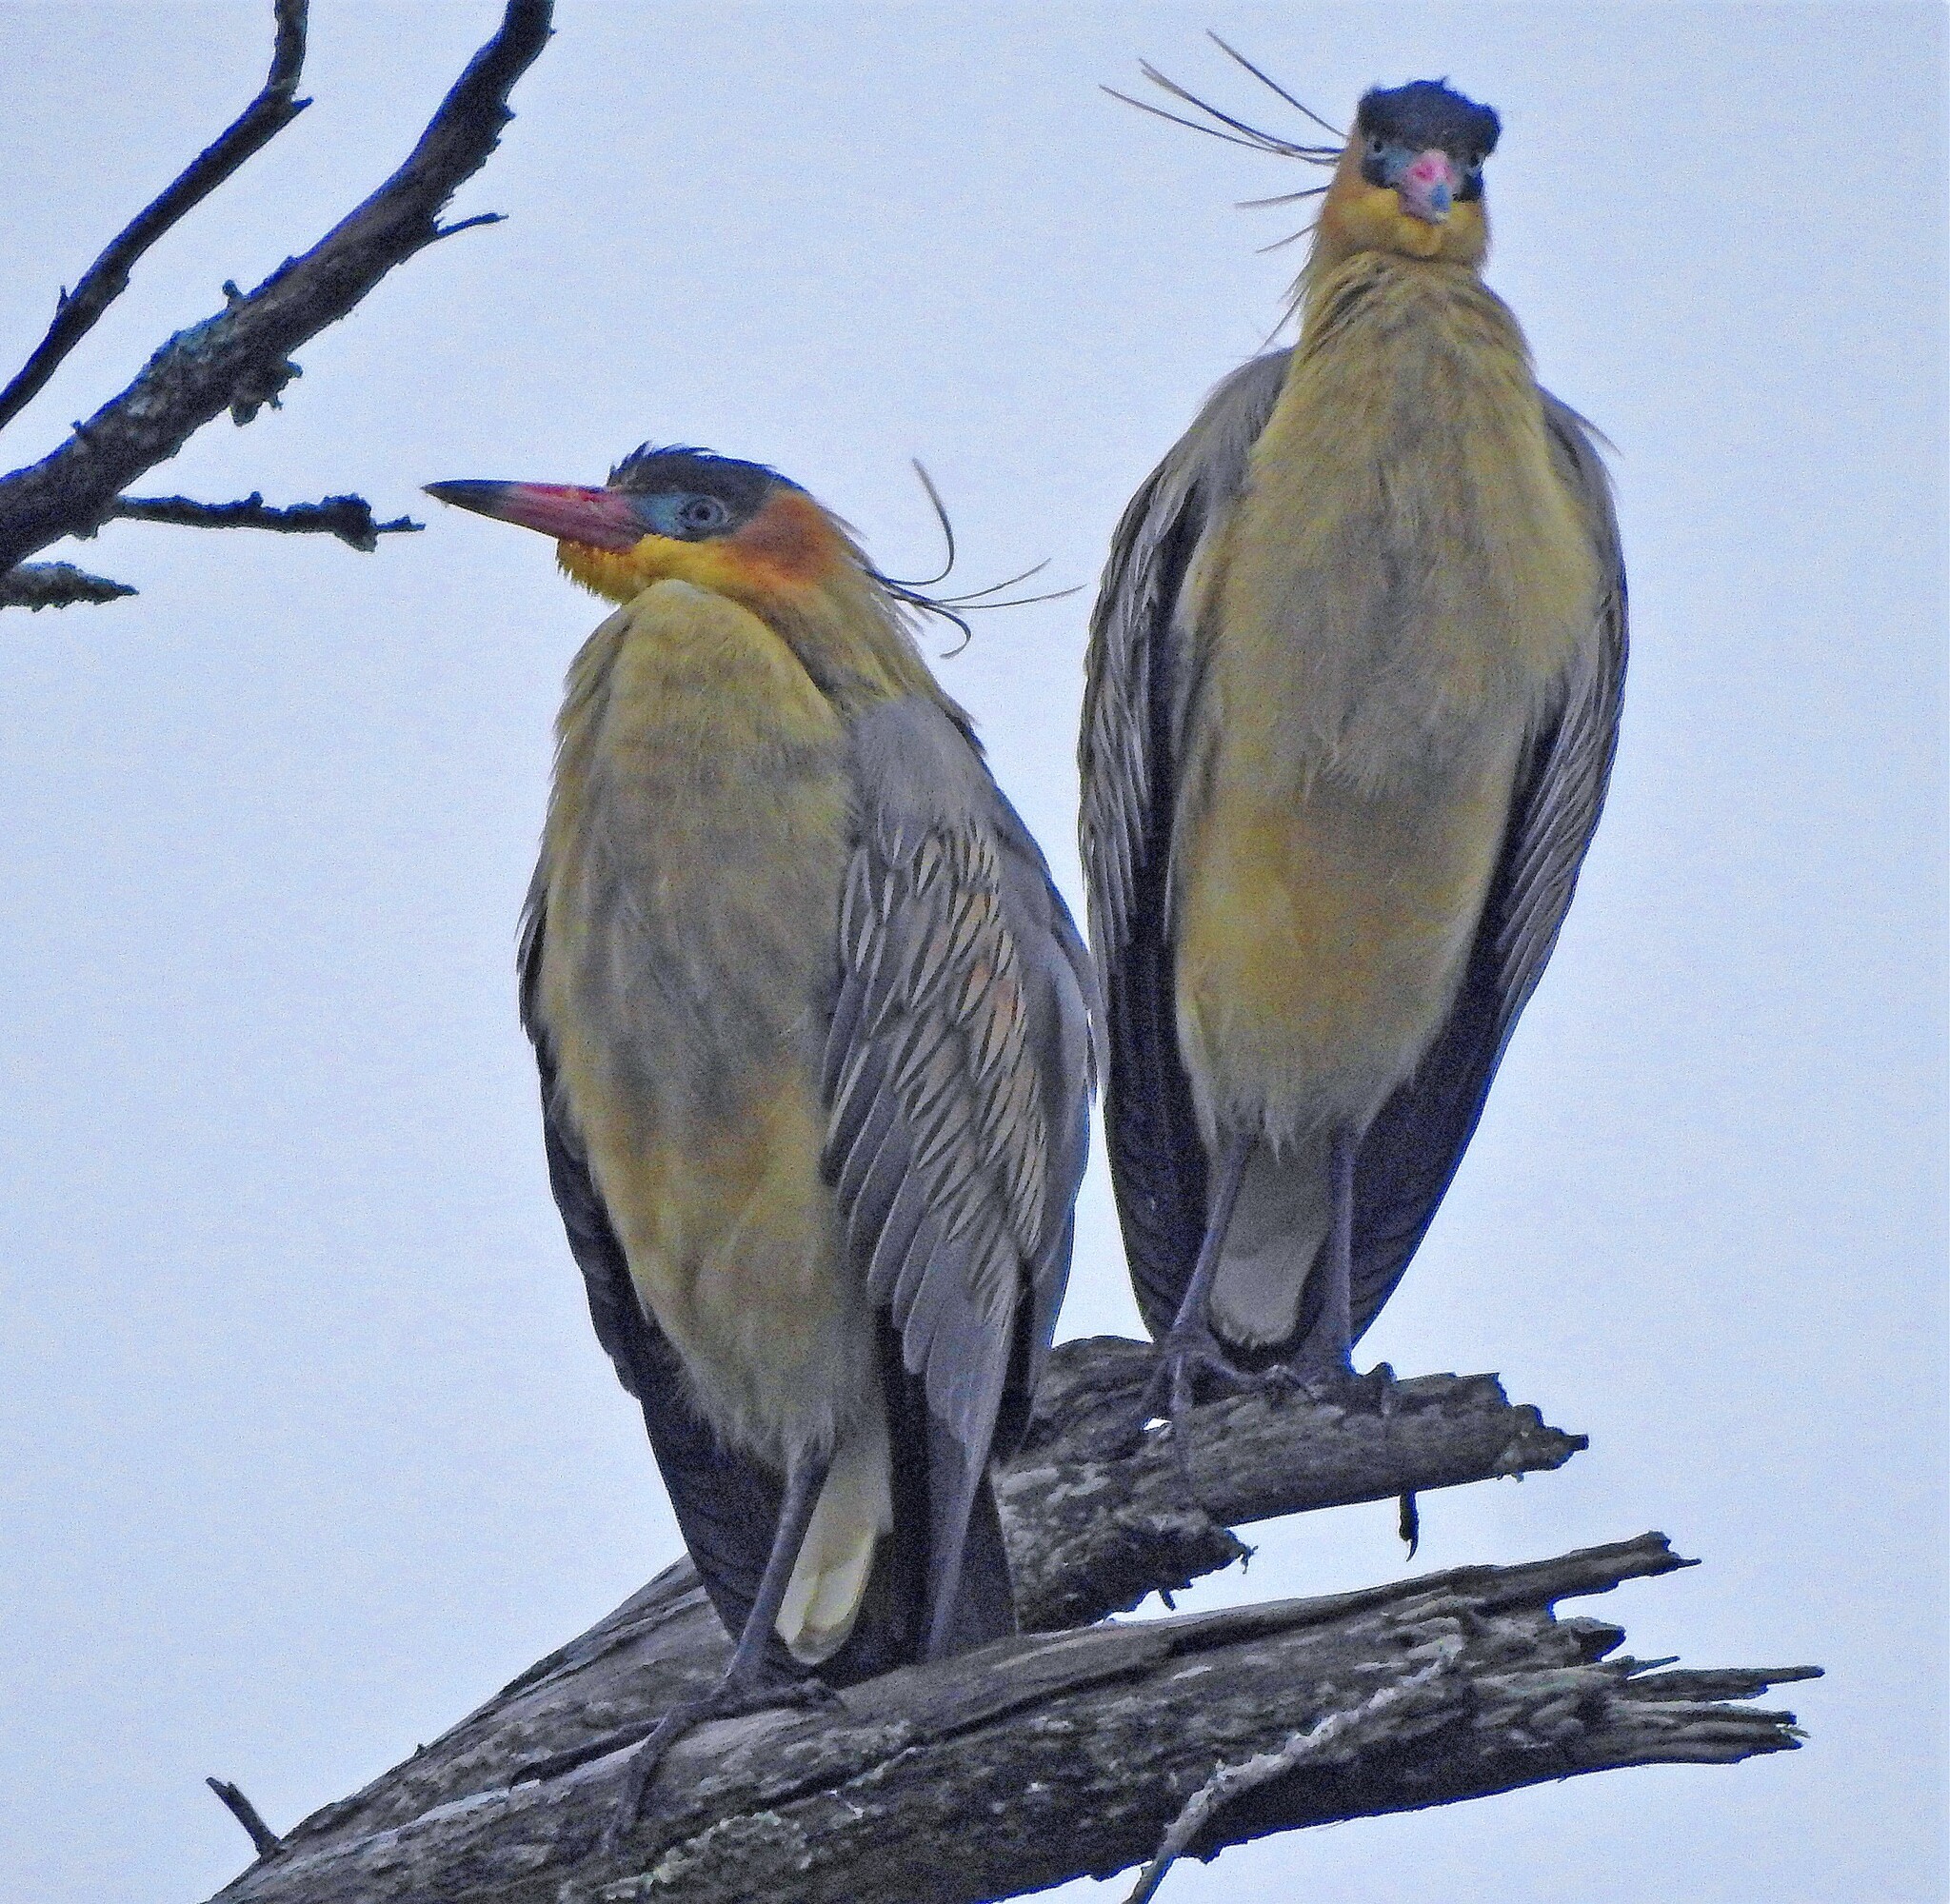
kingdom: Animalia
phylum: Chordata
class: Aves
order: Pelecaniformes
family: Ardeidae
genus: Syrigma
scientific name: Syrigma sibilatrix
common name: Whistling heron
